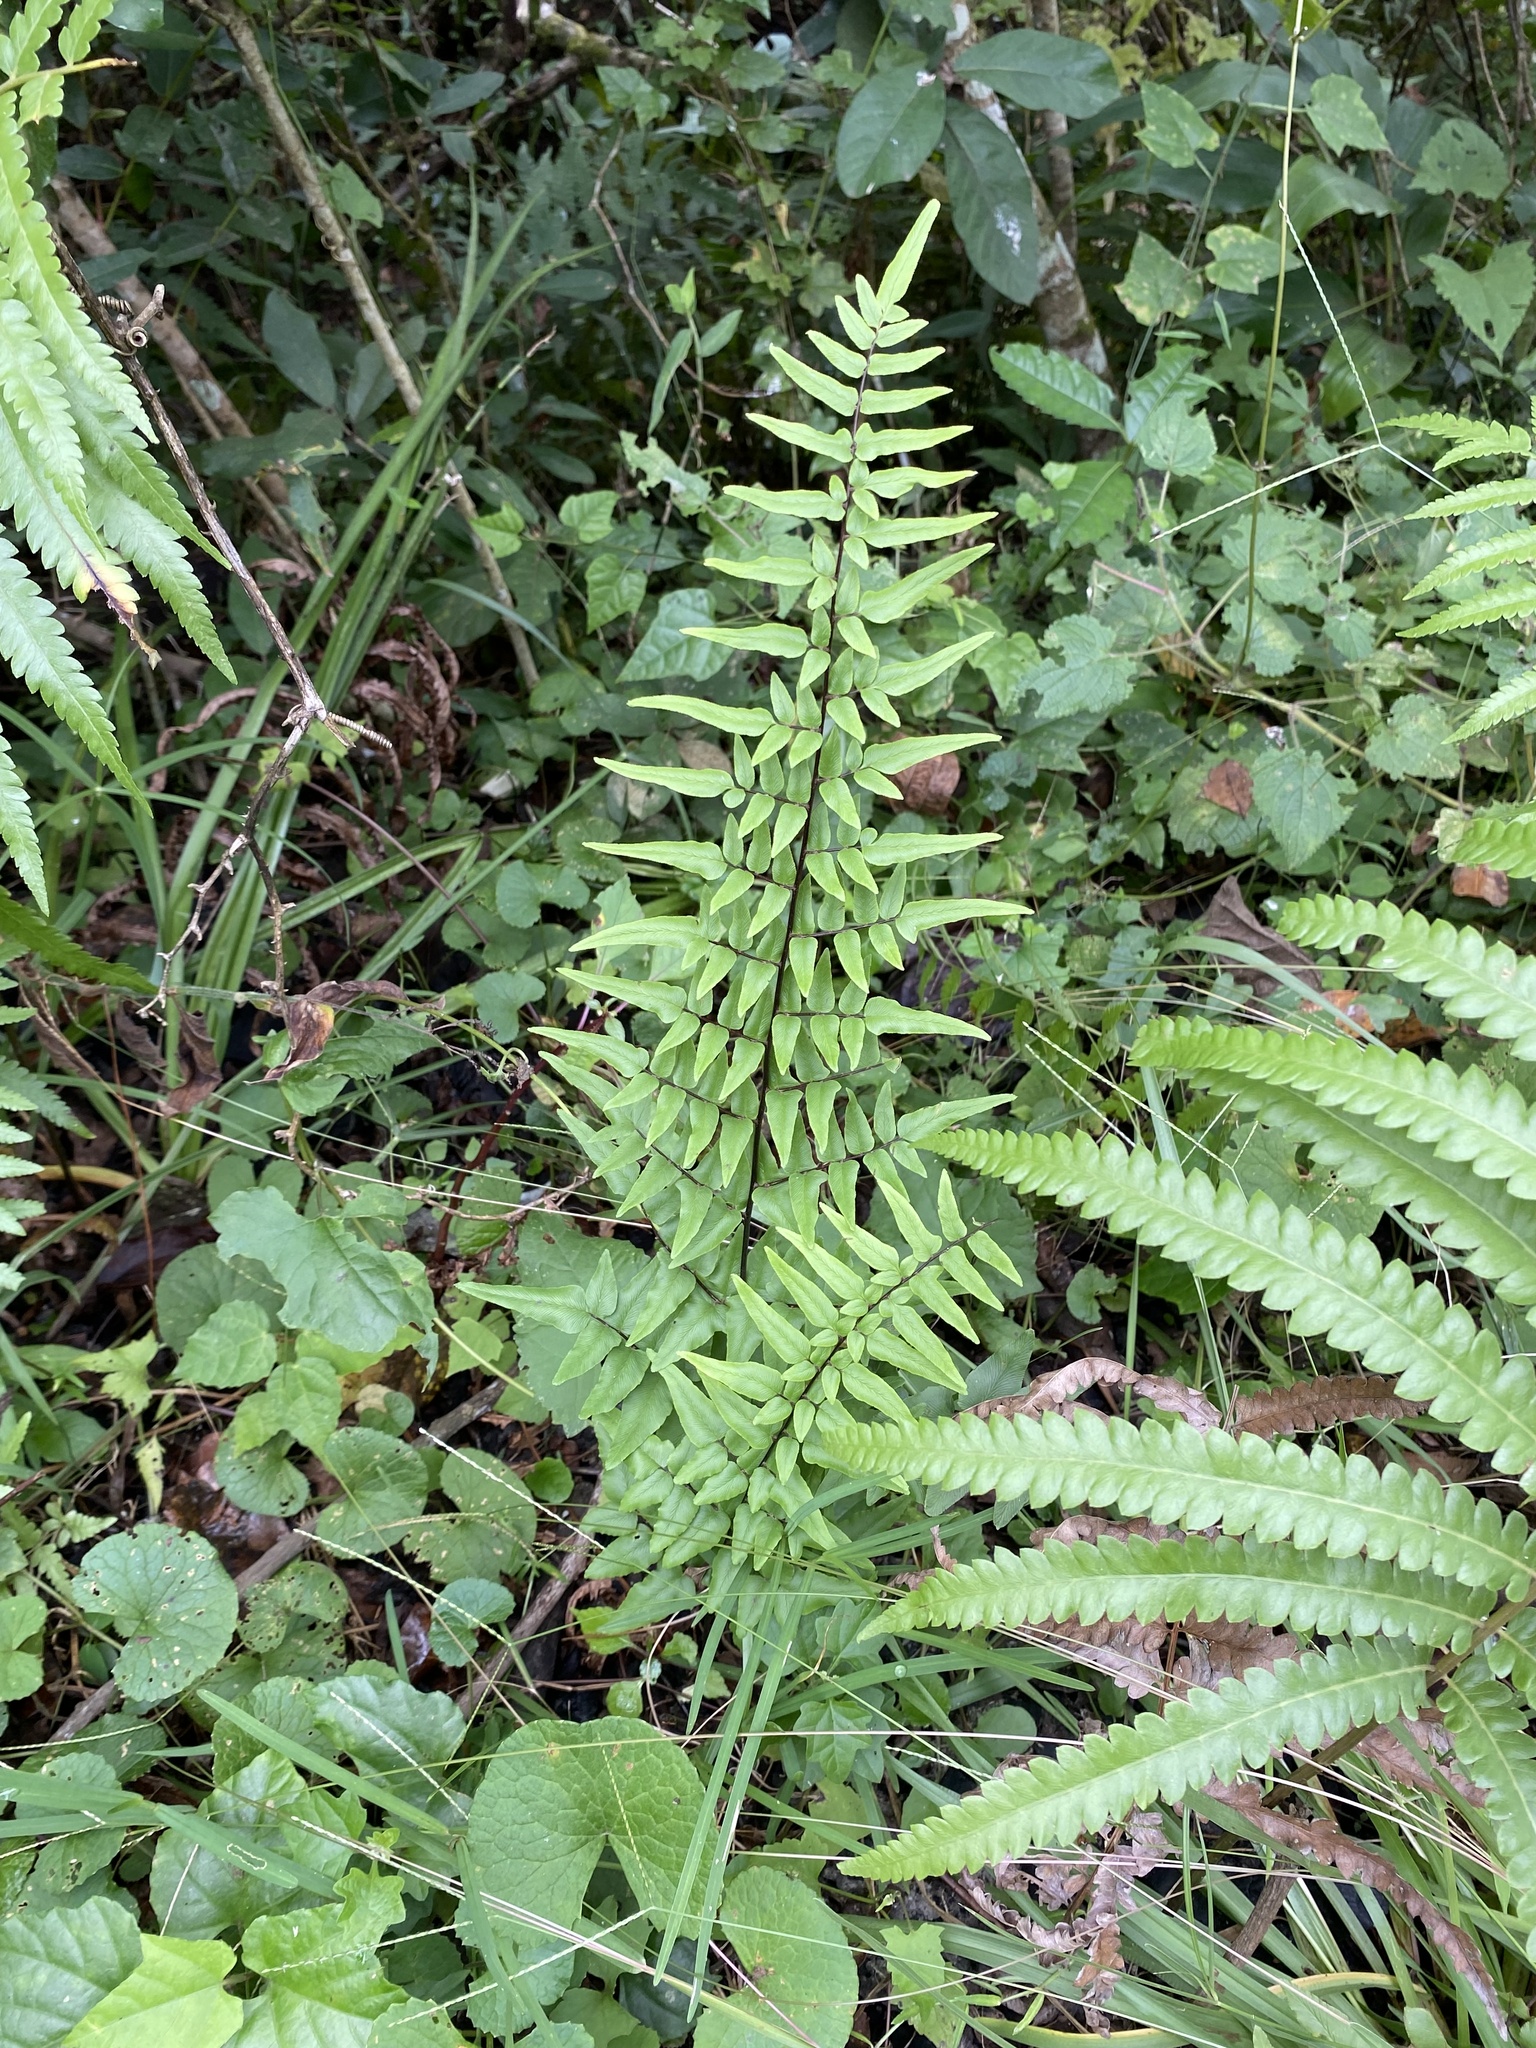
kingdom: Plantae
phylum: Tracheophyta
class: Polypodiopsida
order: Polypodiales
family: Pteridaceae
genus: Cheilanthes
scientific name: Cheilanthes viridis
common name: Green cliffbrake
